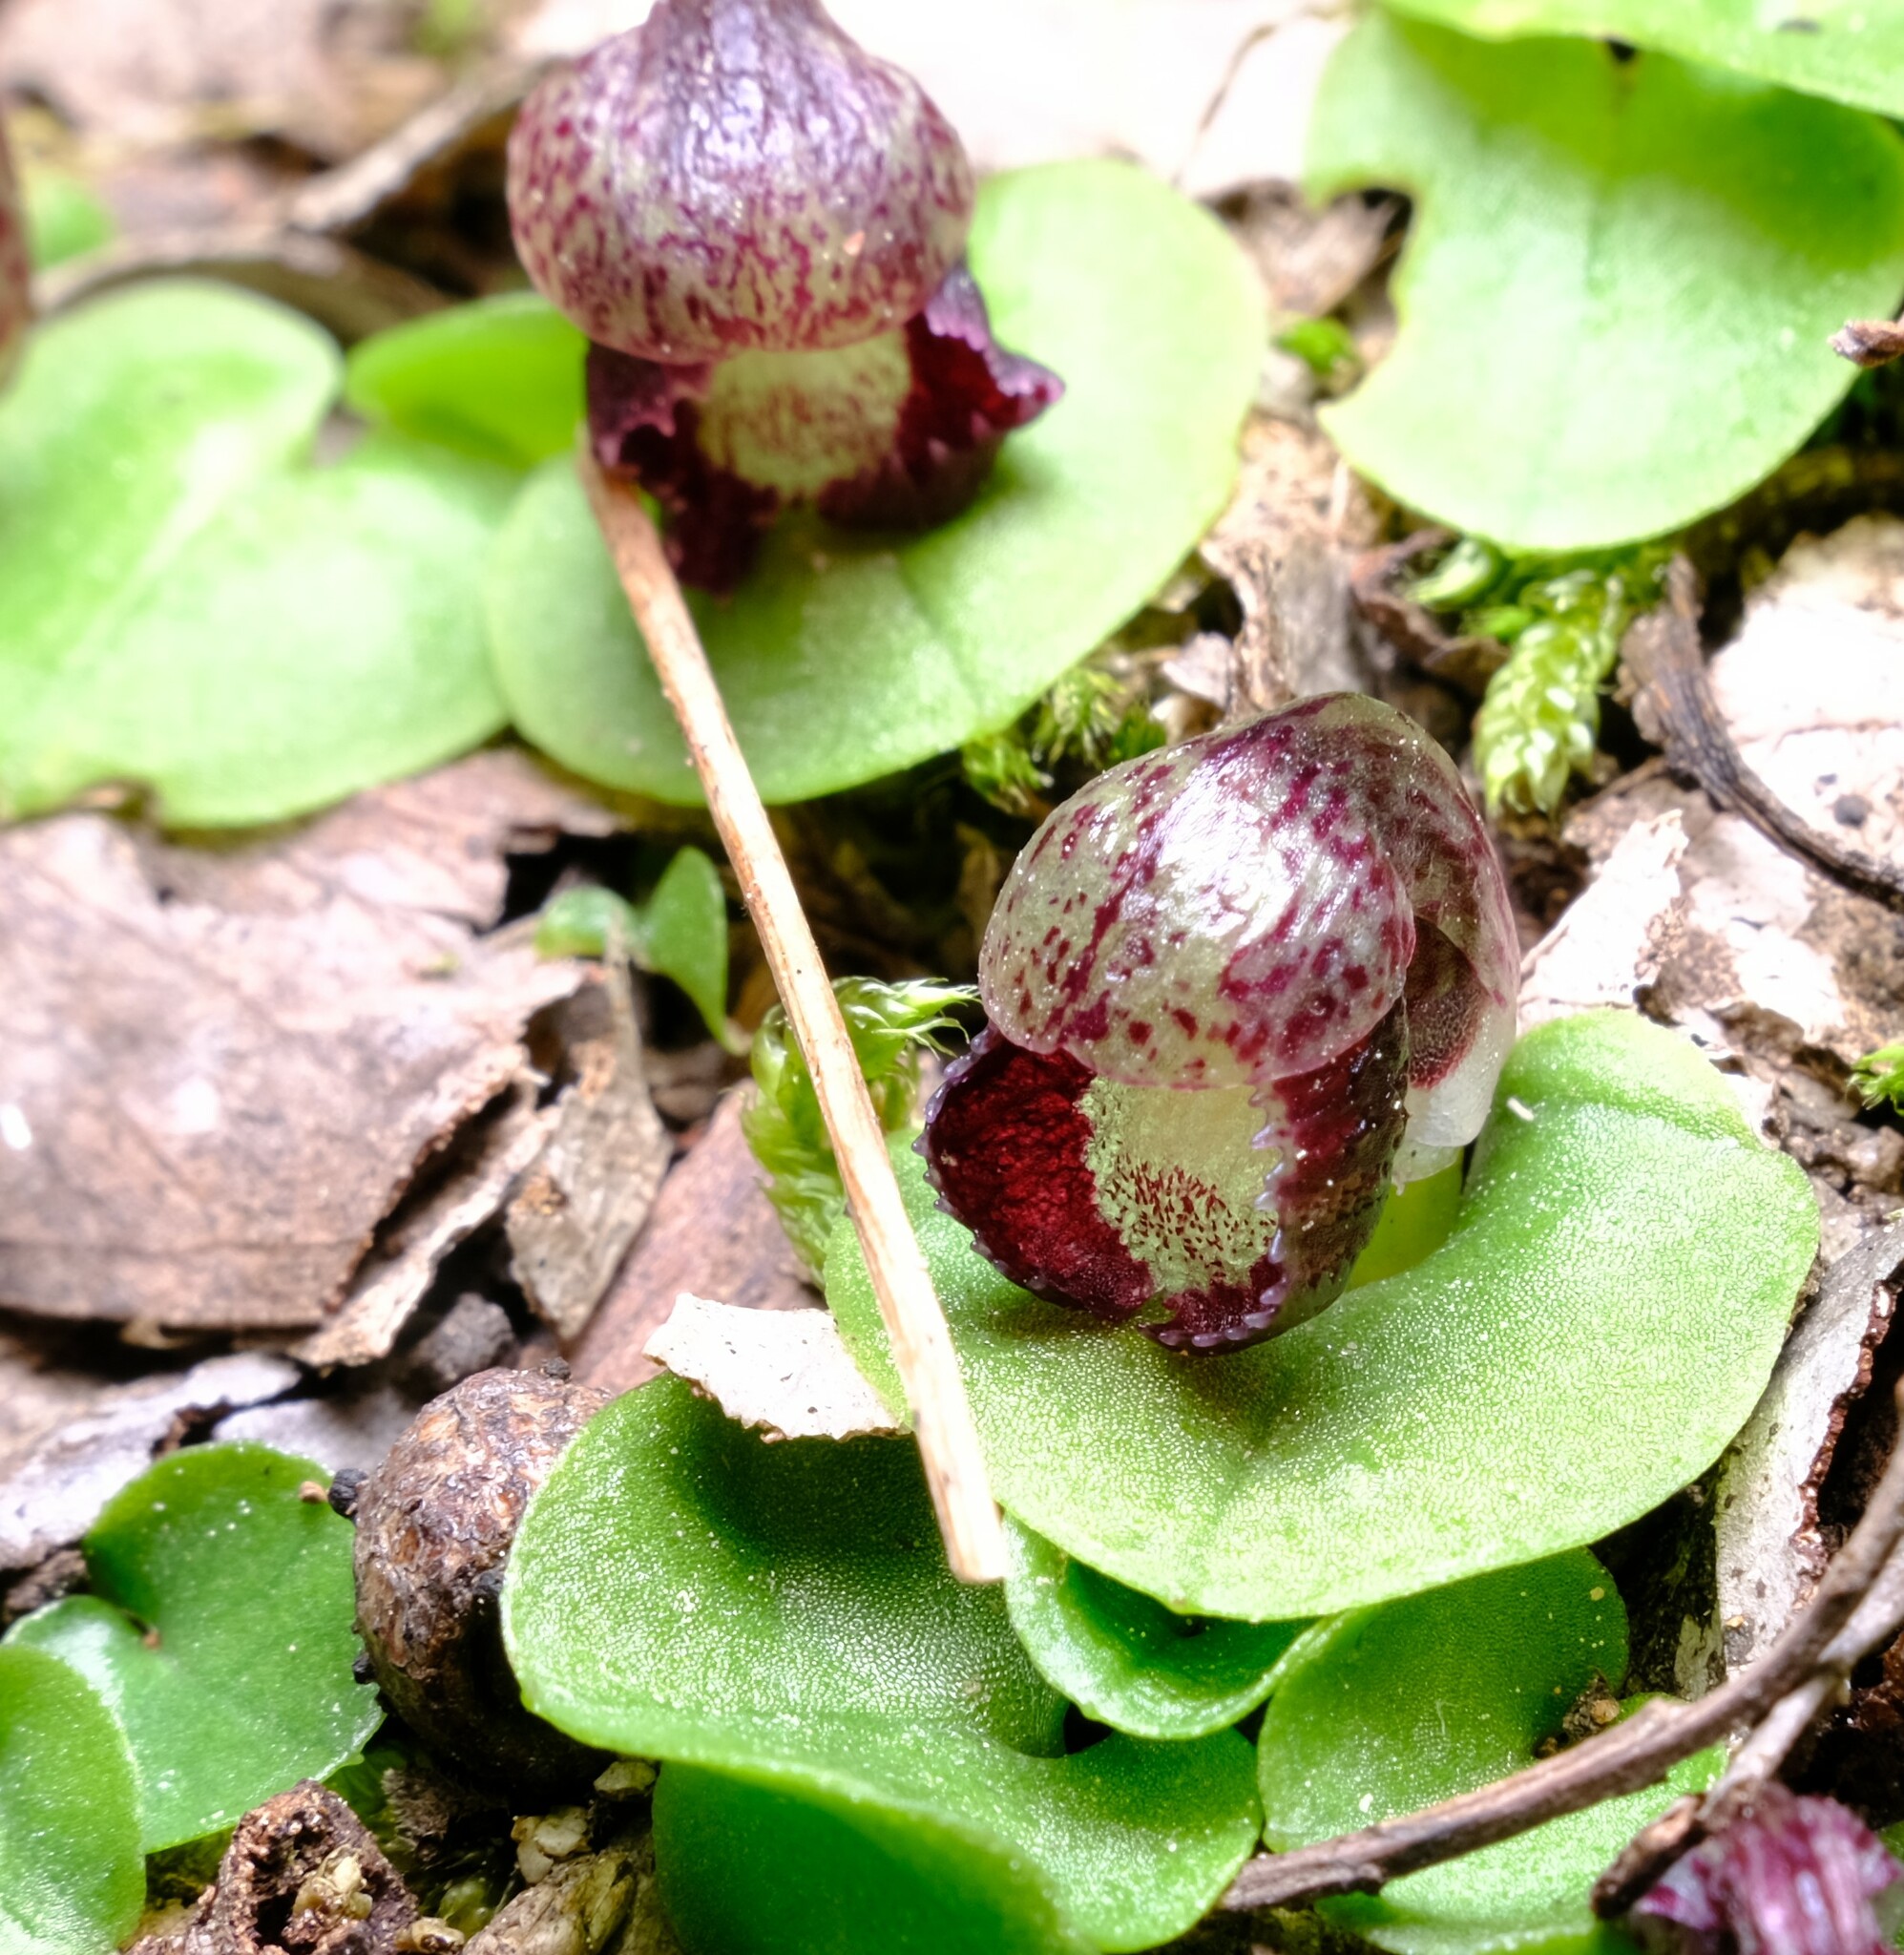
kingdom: Plantae
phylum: Tracheophyta
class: Liliopsida
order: Asparagales
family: Orchidaceae
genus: Corybas
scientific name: Corybas incurvus
